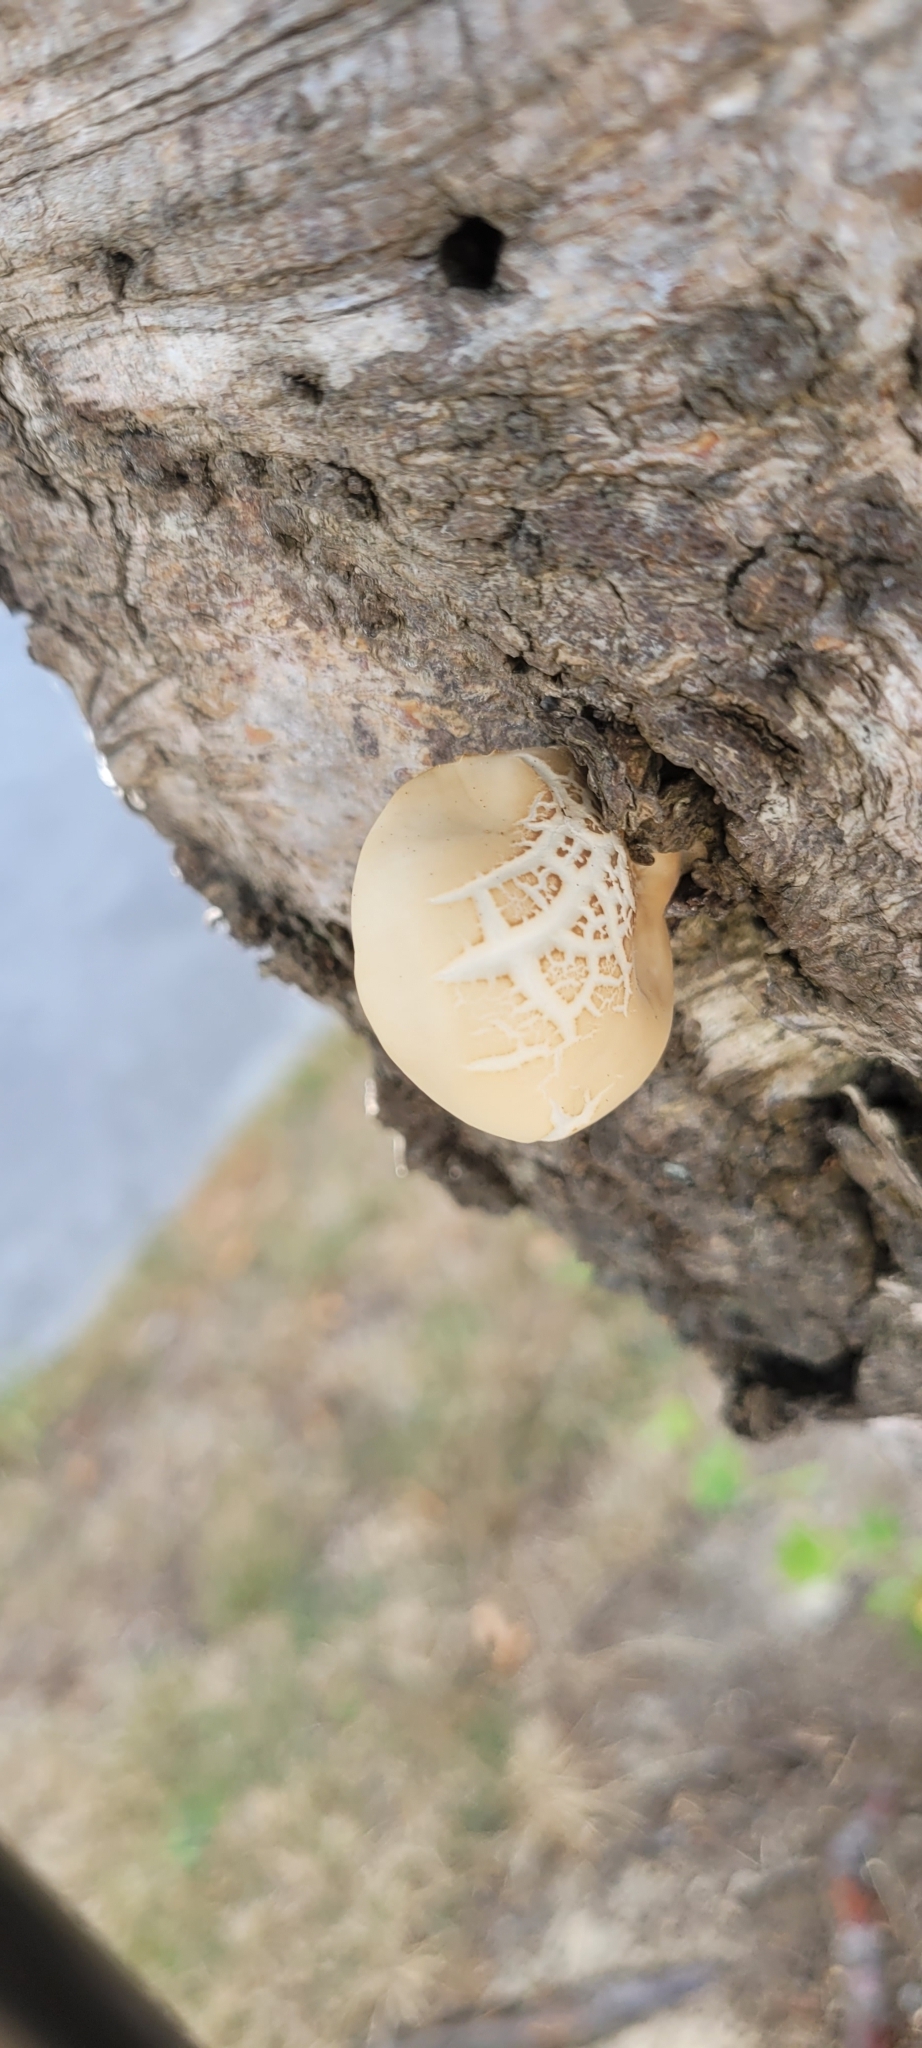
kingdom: Fungi
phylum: Basidiomycota
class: Agaricomycetes
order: Agaricales
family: Tubariaceae
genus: Cyclocybe
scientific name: Cyclocybe parasitica
